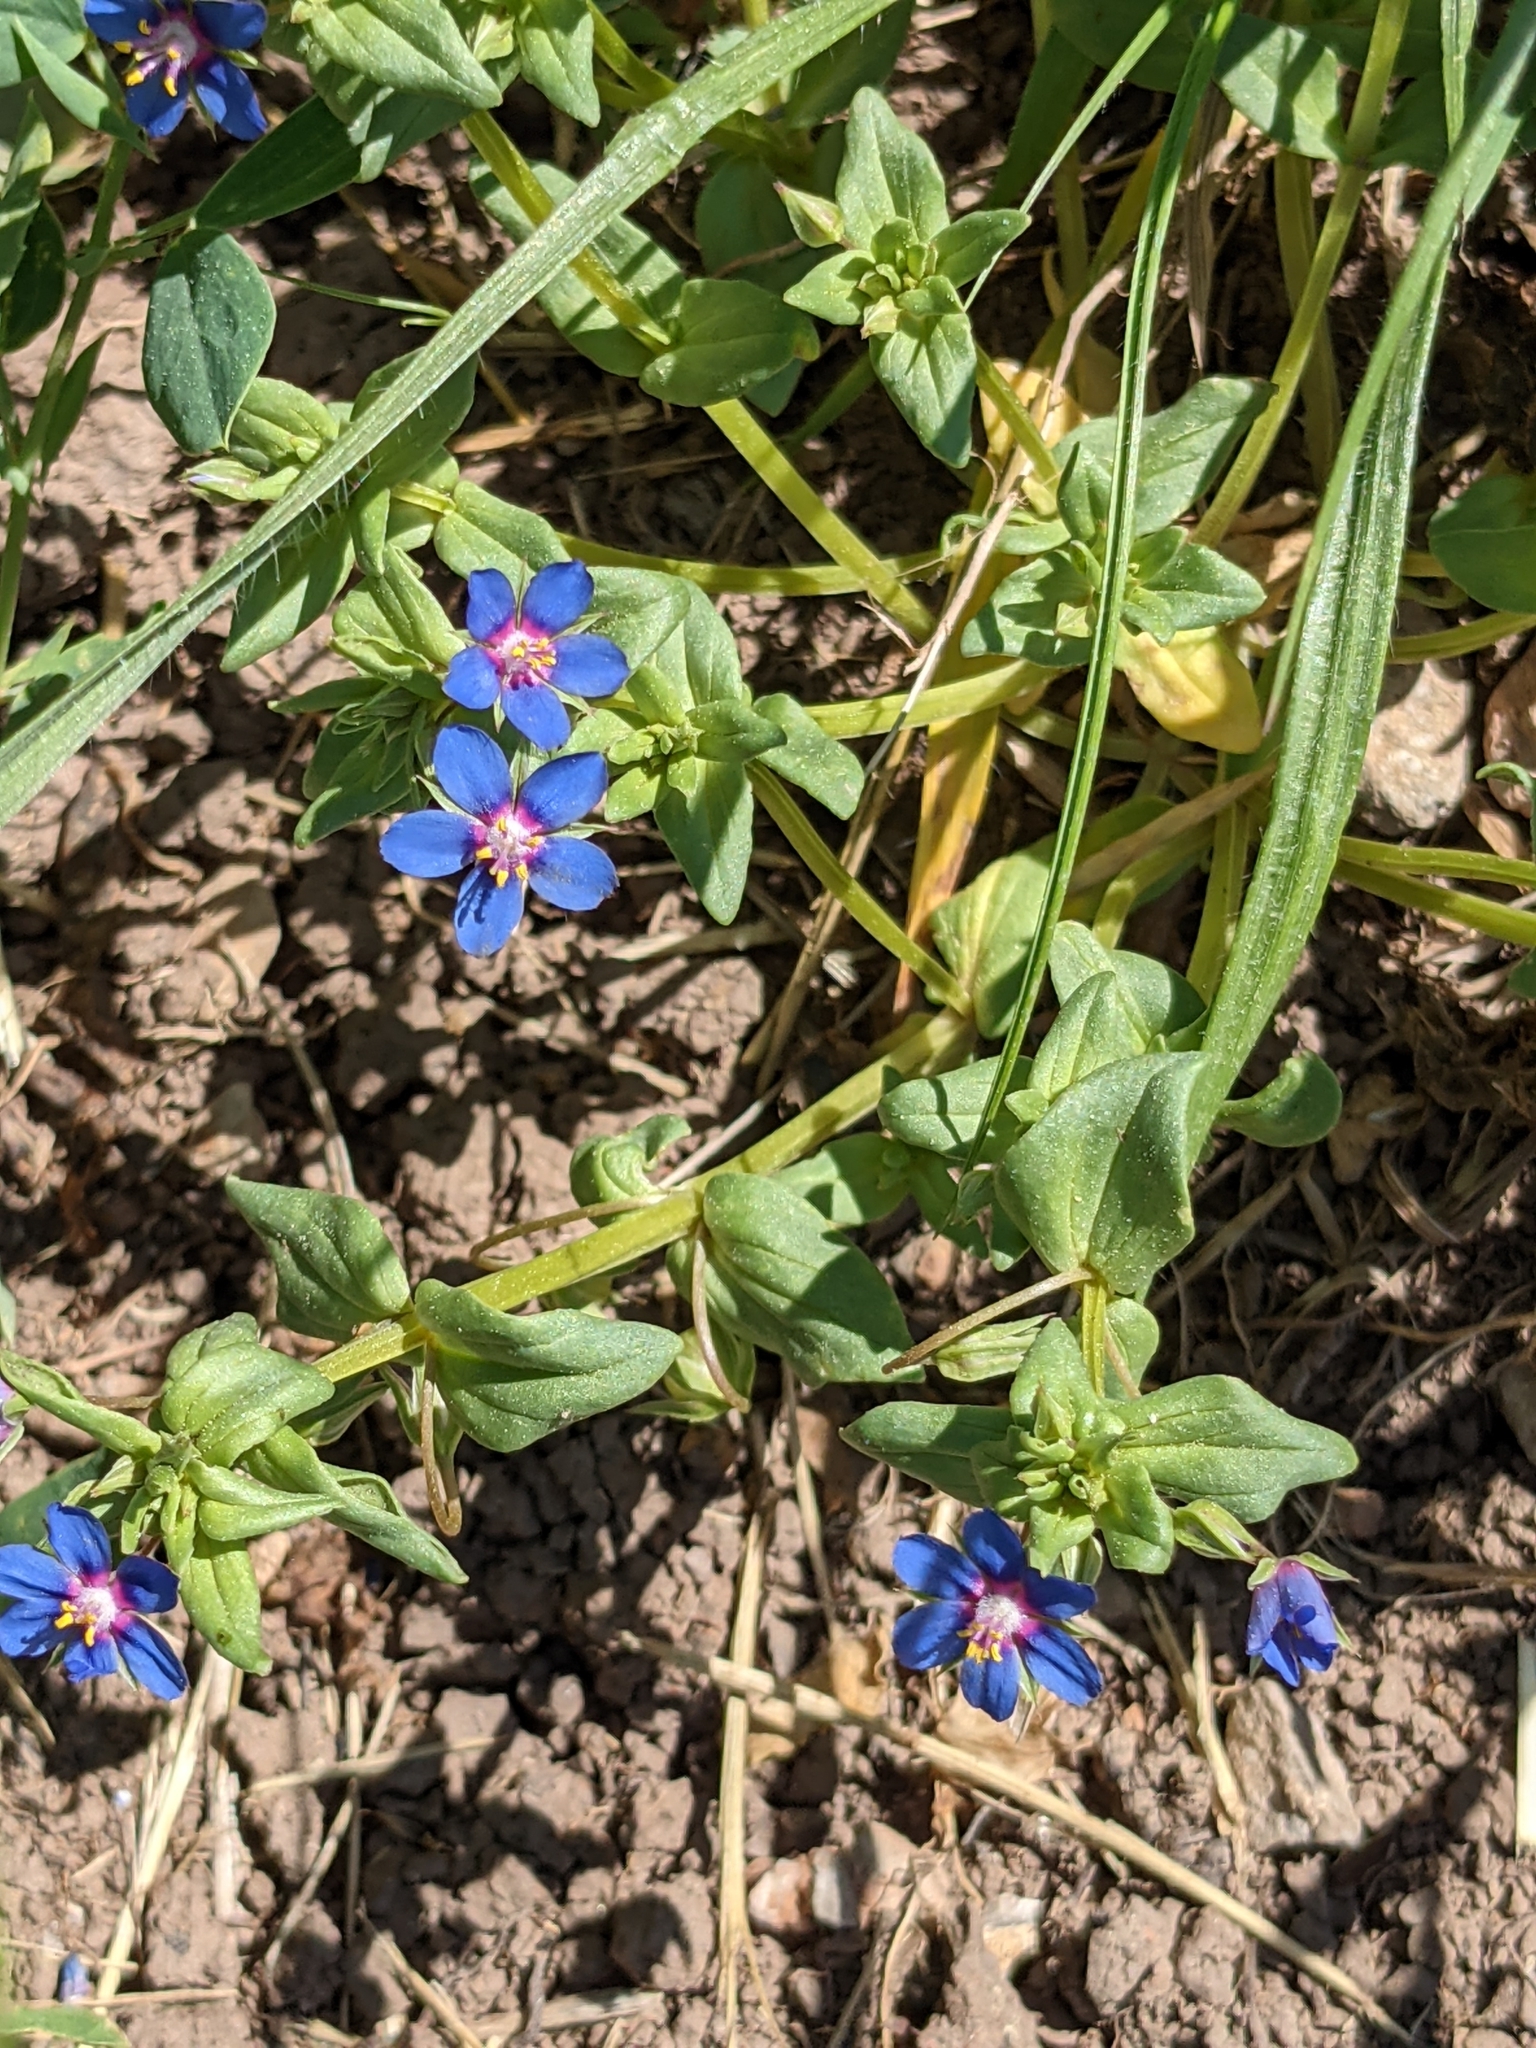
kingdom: Plantae
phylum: Tracheophyta
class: Magnoliopsida
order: Ericales
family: Primulaceae
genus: Lysimachia
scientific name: Lysimachia foemina
